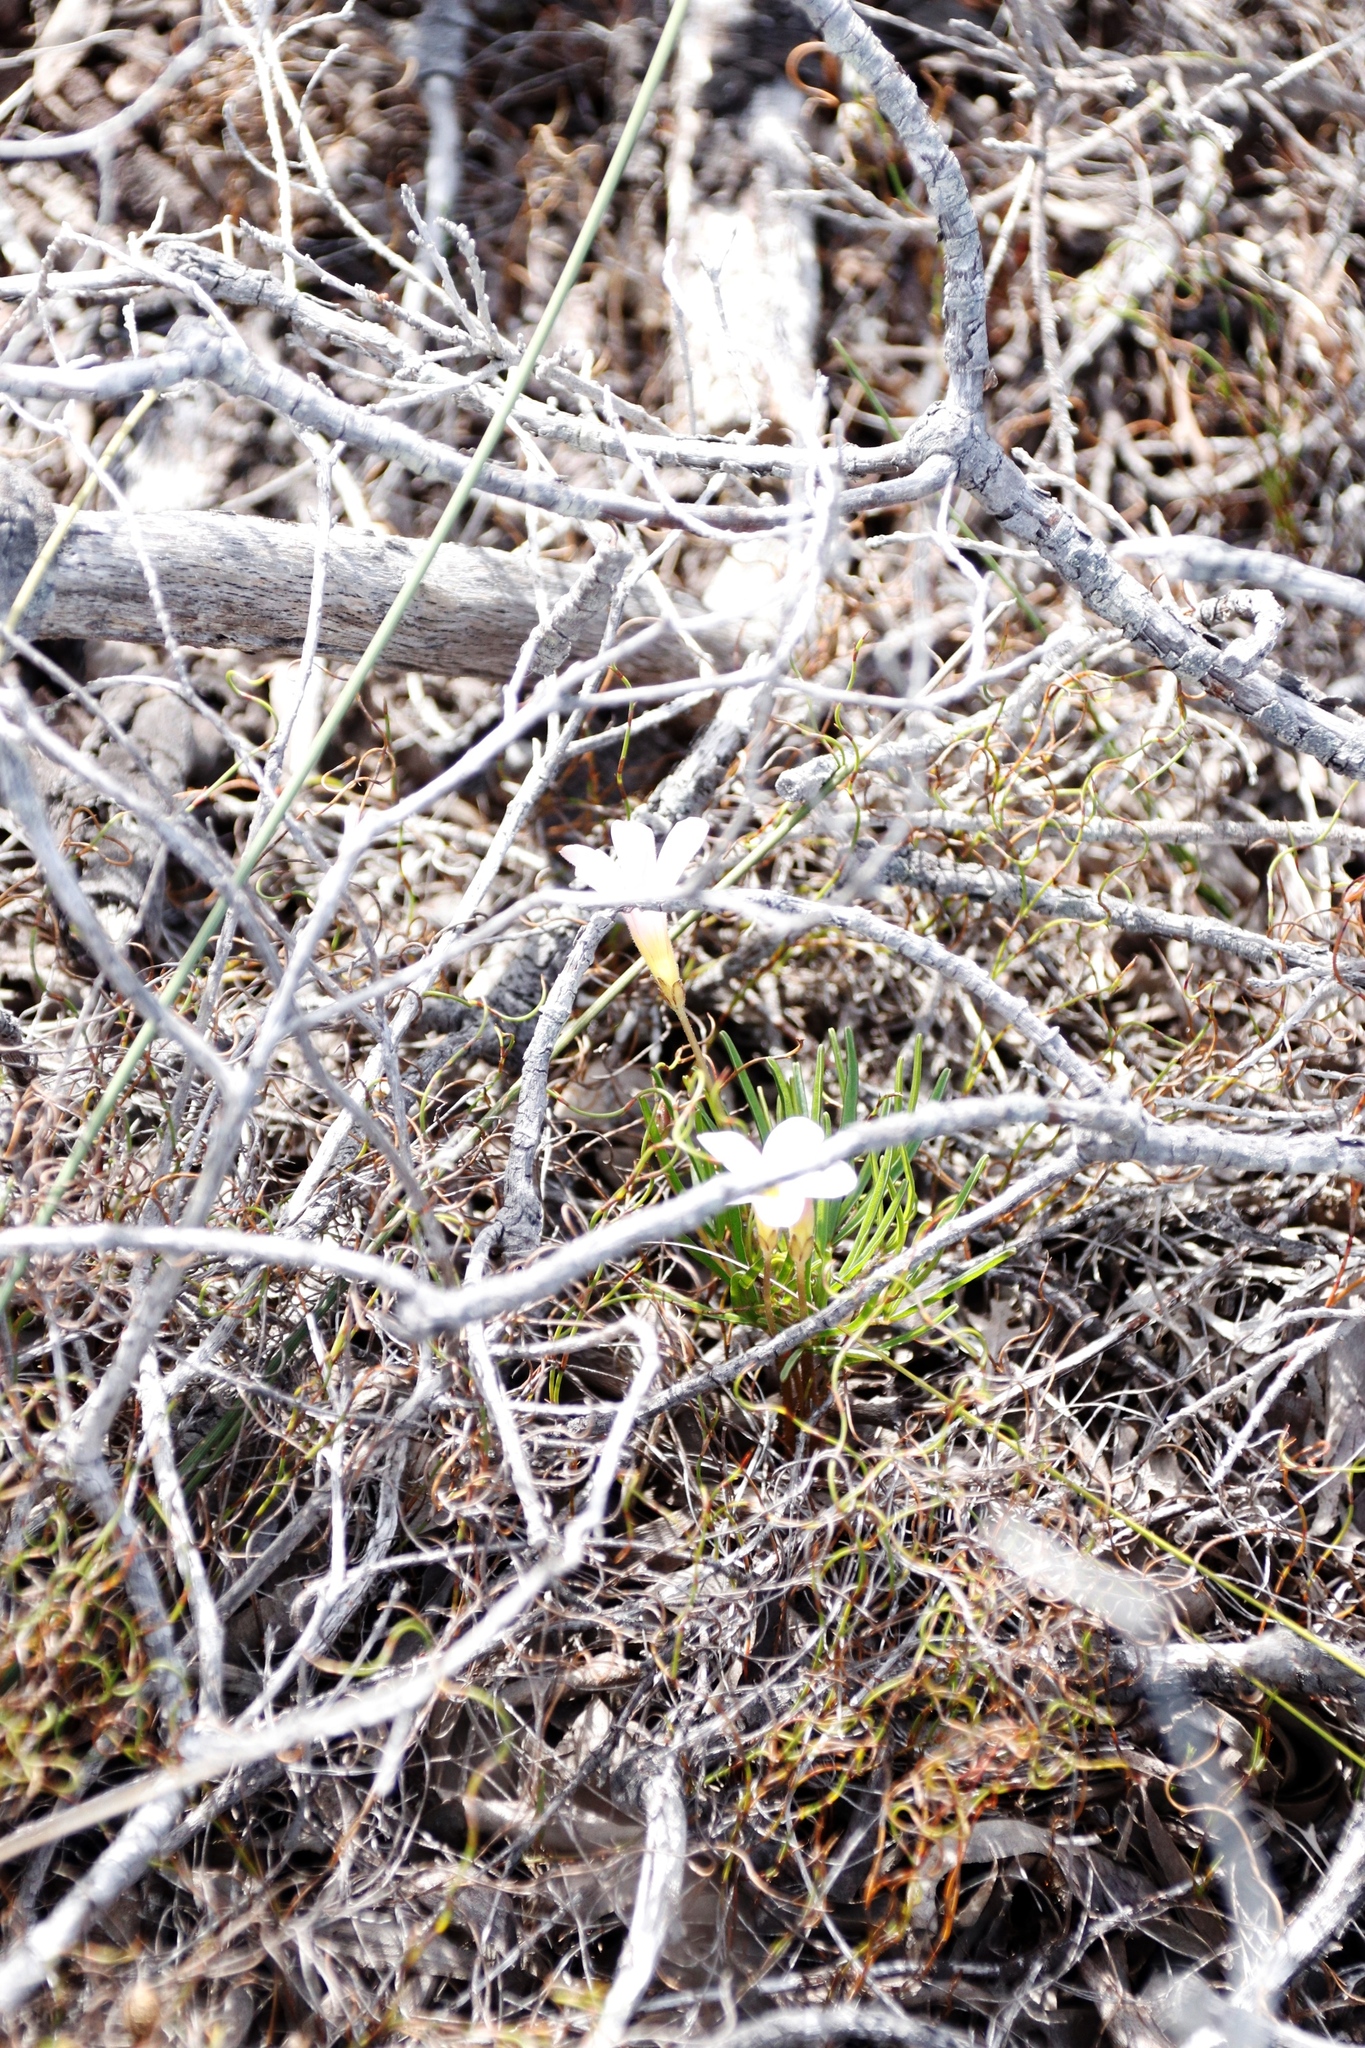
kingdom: Plantae
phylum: Tracheophyta
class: Magnoliopsida
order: Oxalidales
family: Oxalidaceae
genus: Oxalis
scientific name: Oxalis polyphylla
